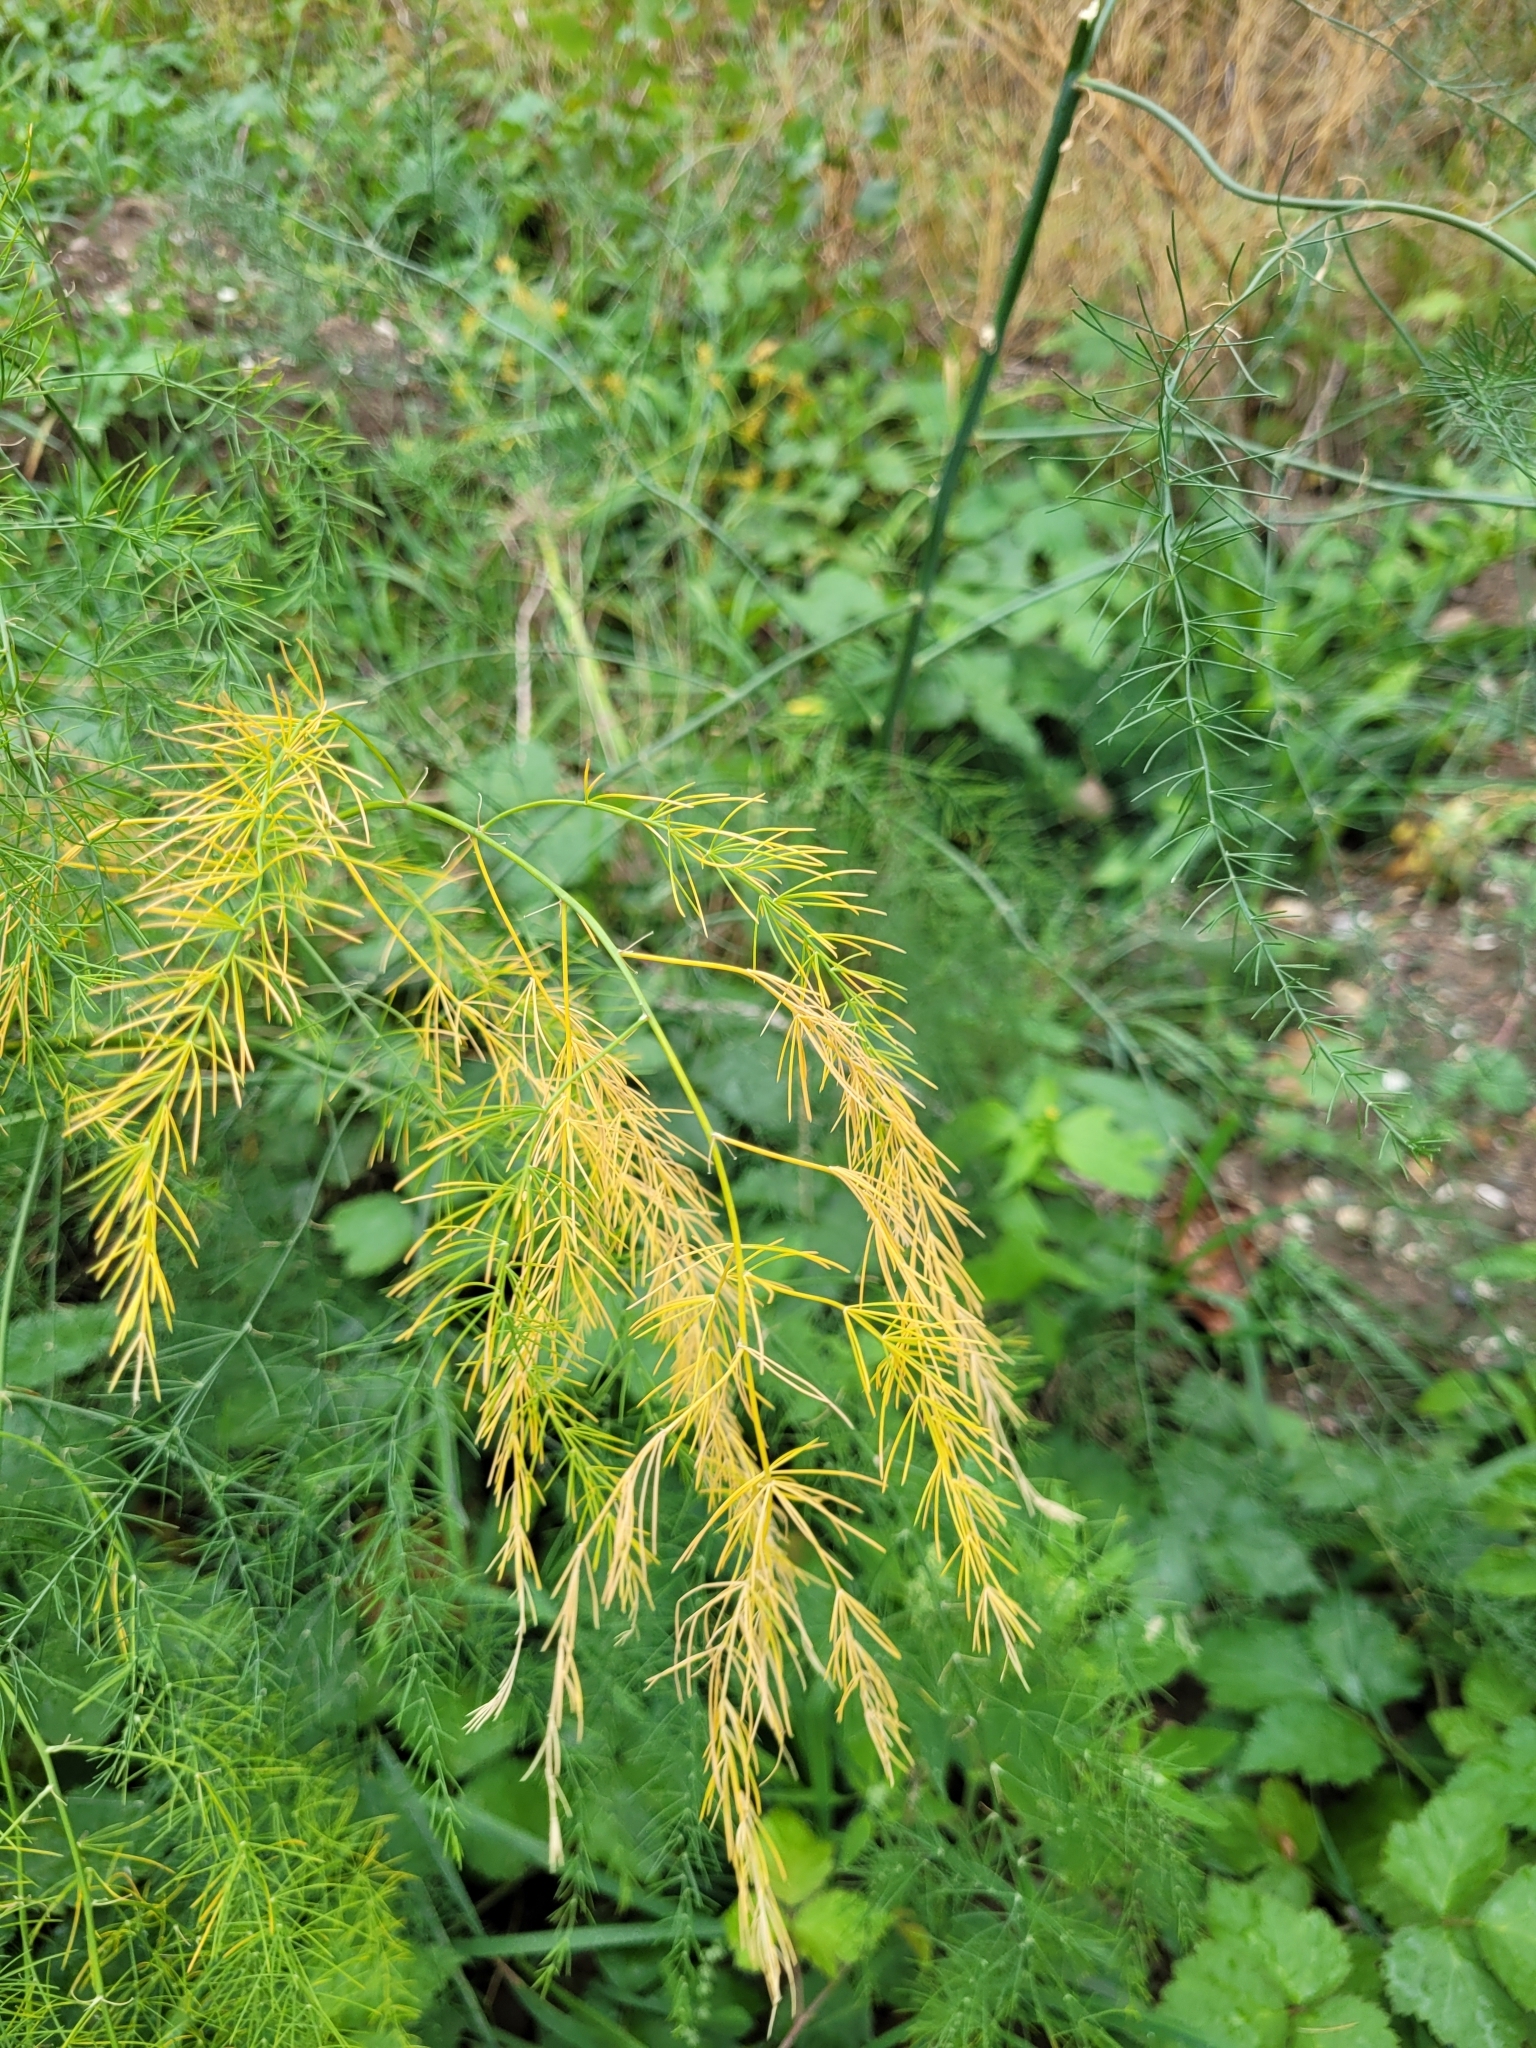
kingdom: Plantae
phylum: Tracheophyta
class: Liliopsida
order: Asparagales
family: Asparagaceae
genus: Asparagus
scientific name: Asparagus officinalis
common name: Garden asparagus
